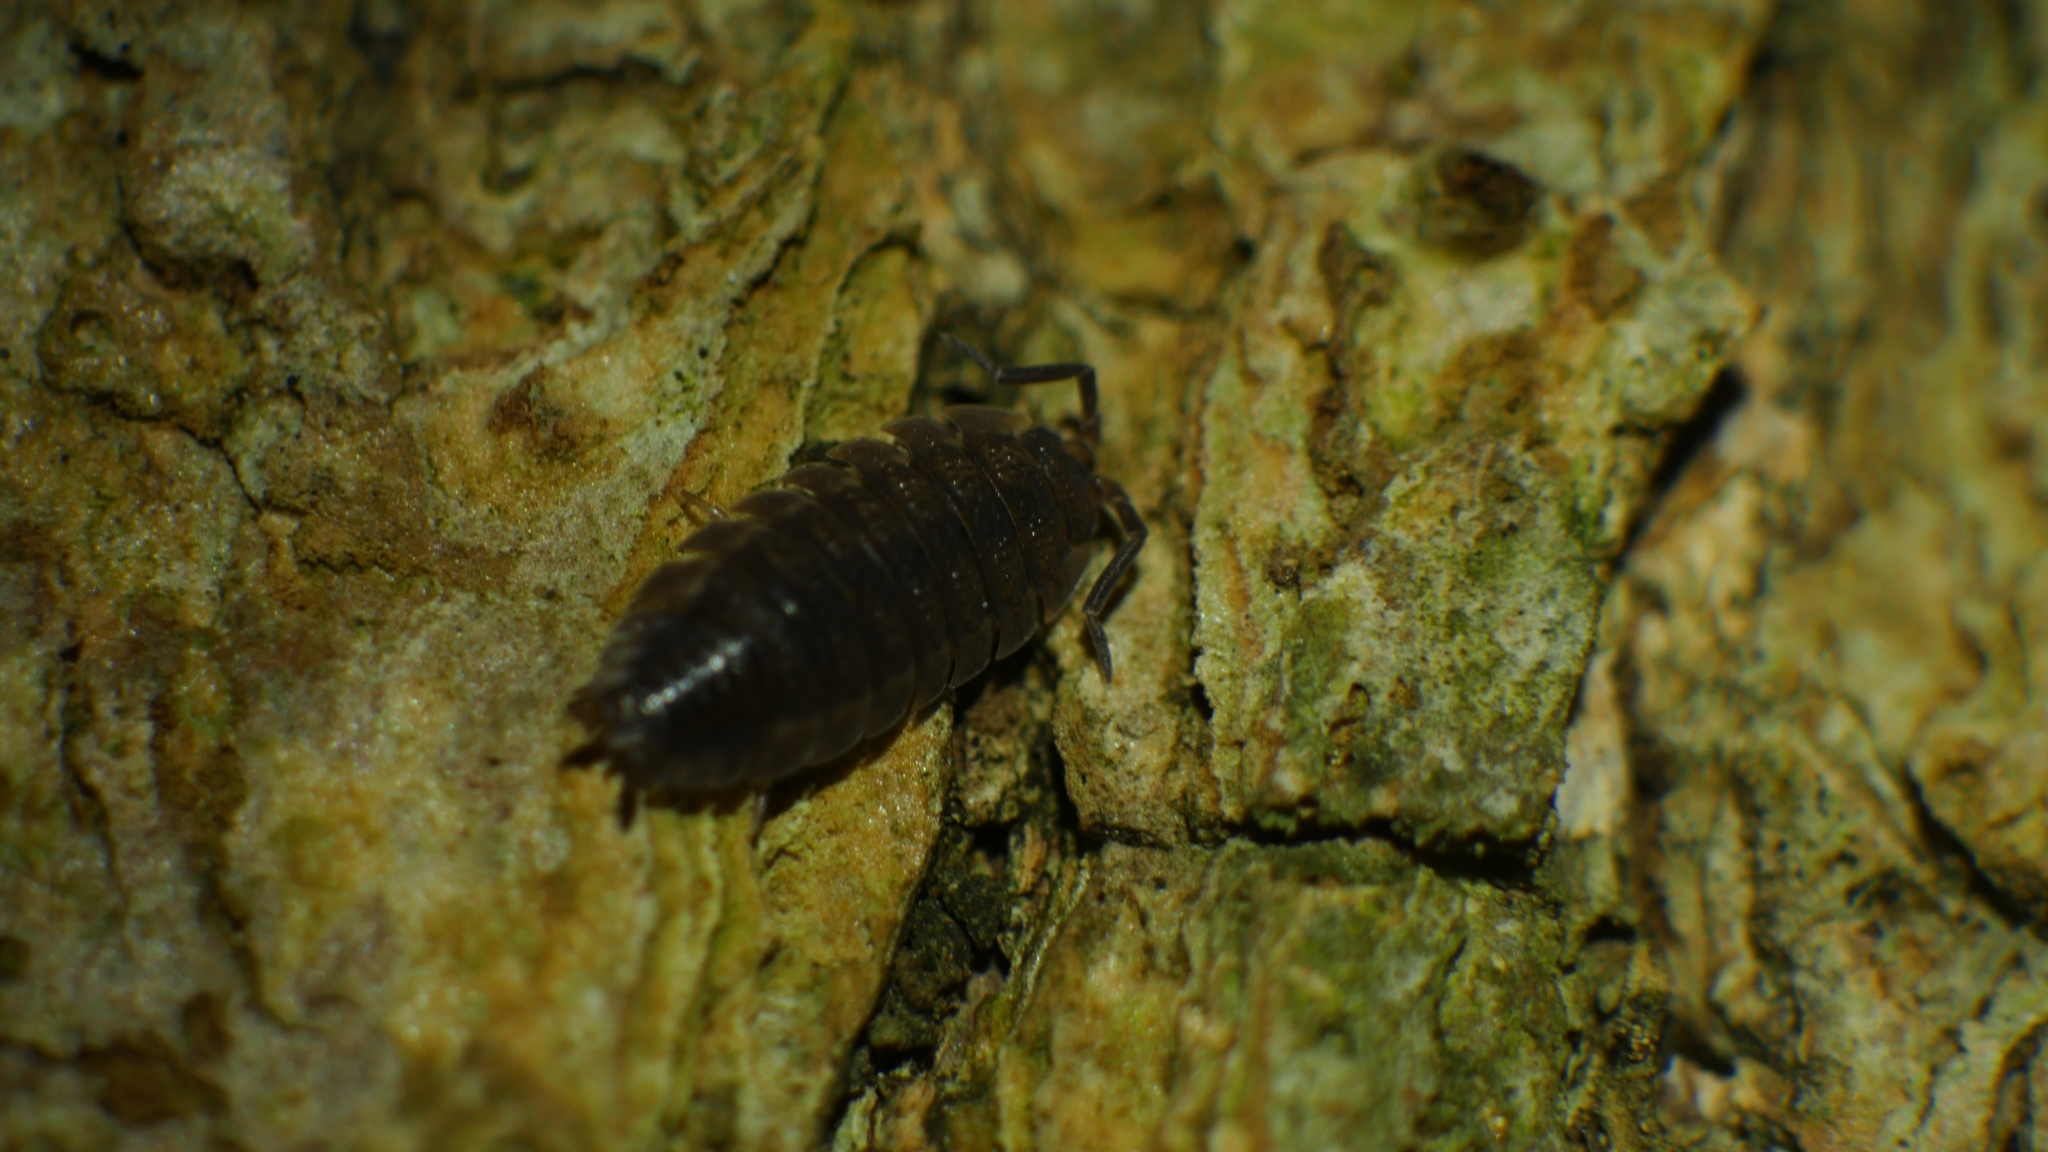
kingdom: Animalia
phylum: Arthropoda
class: Malacostraca
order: Isopoda
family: Porcellionidae
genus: Porcellio
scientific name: Porcellio scaber
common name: Common rough woodlouse
